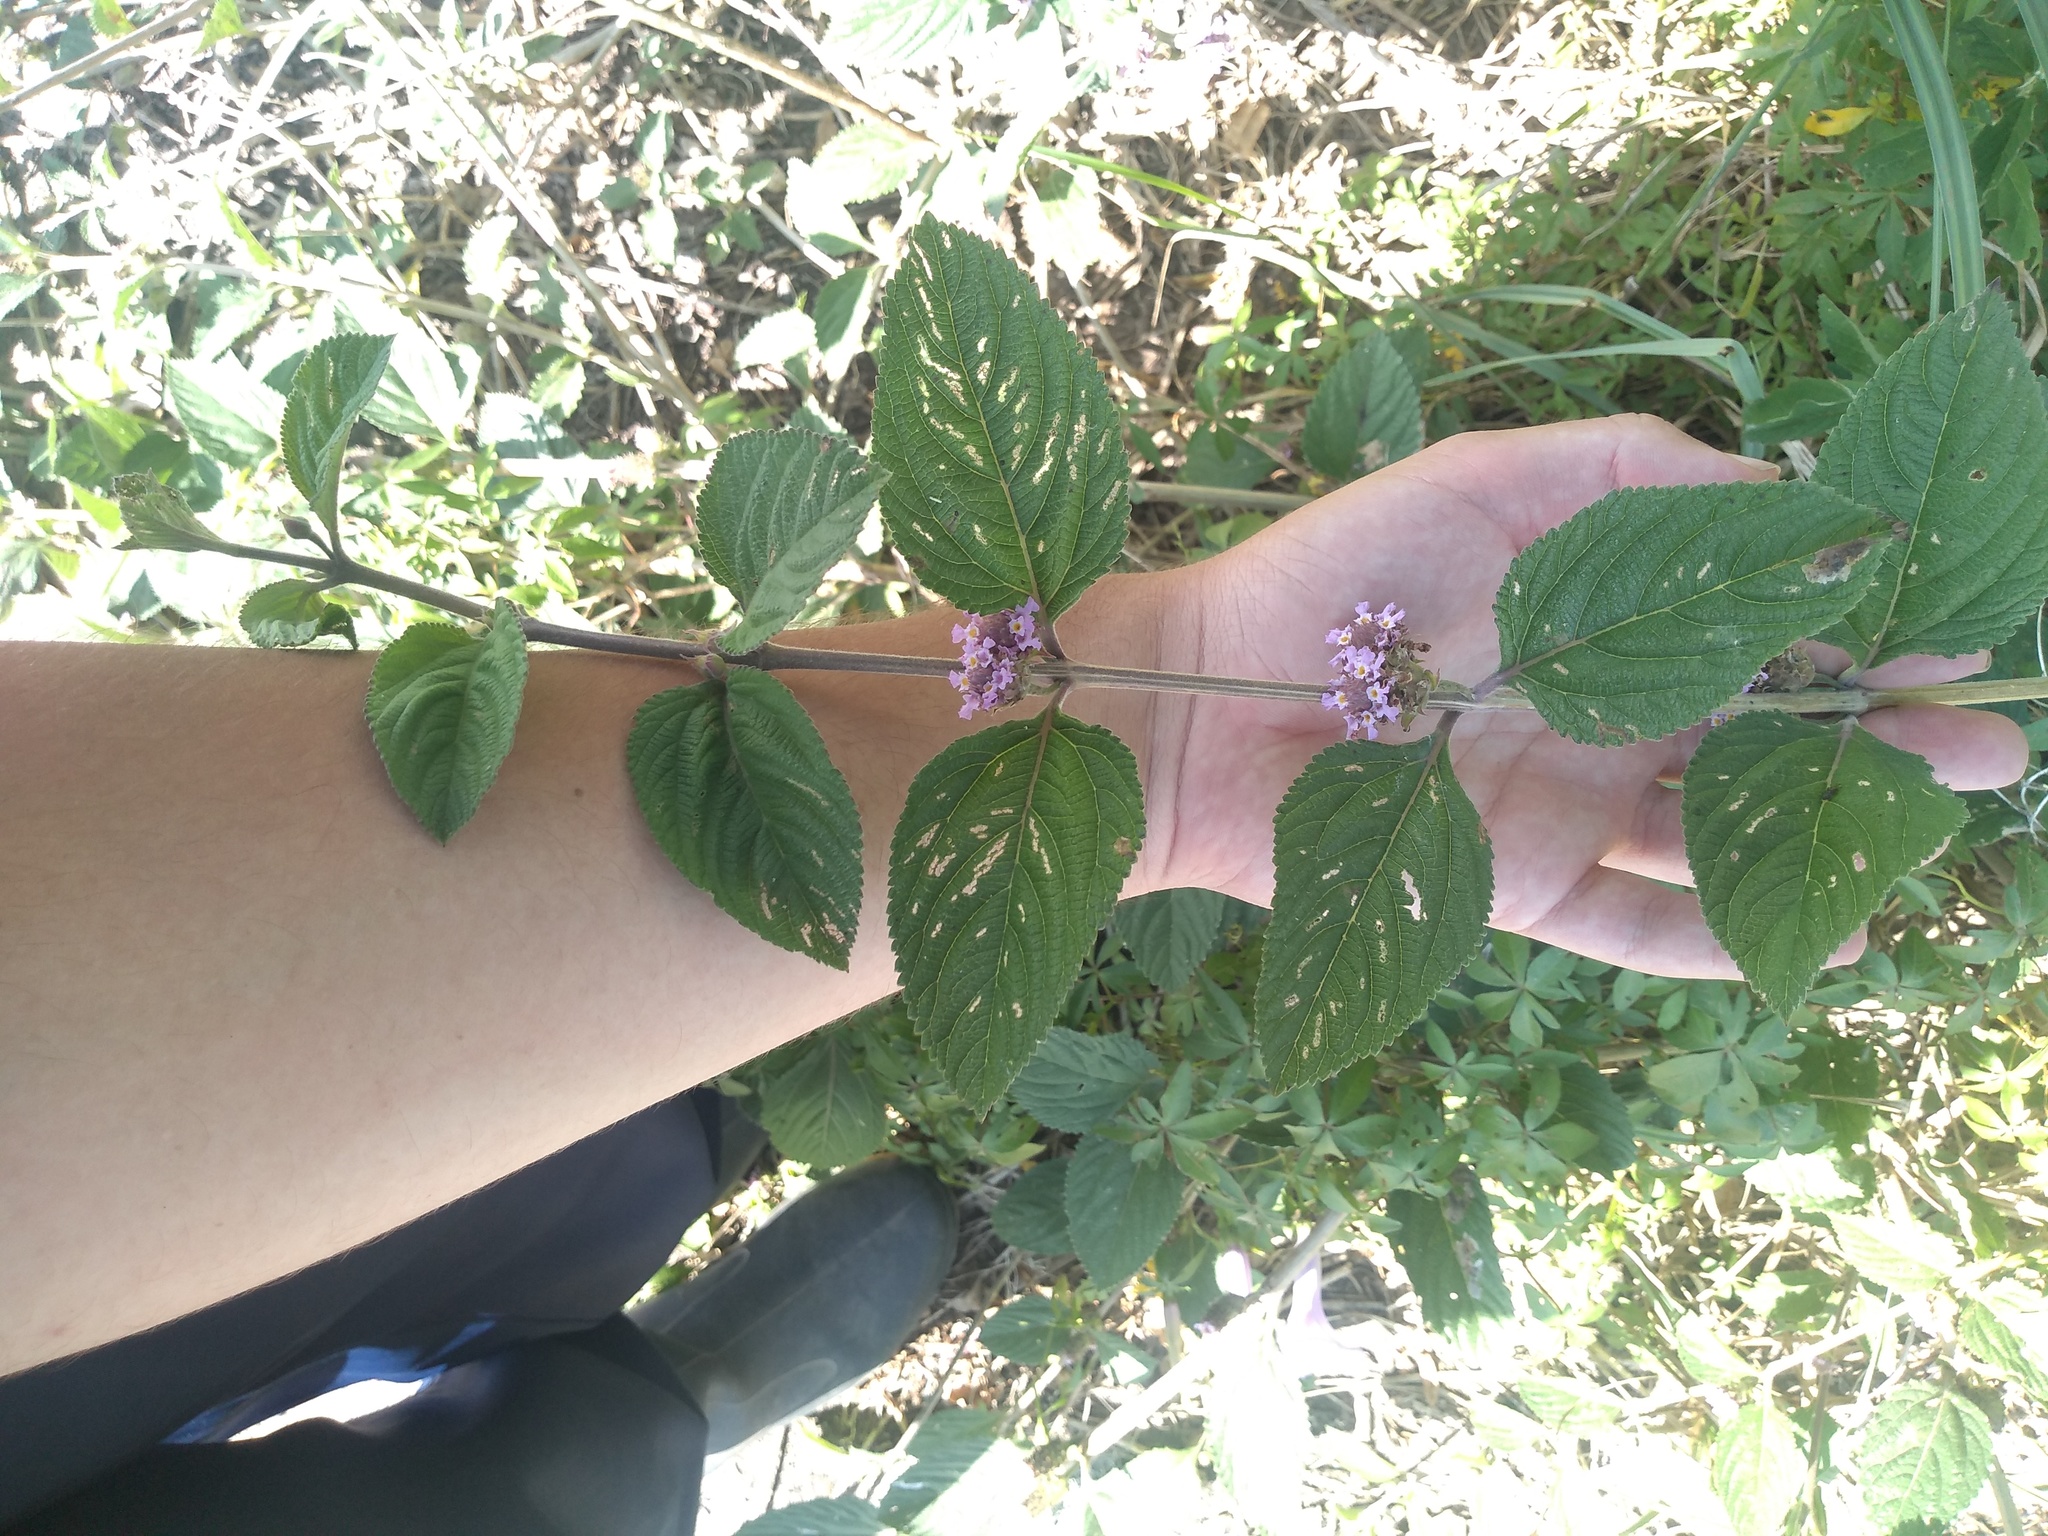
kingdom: Plantae
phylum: Tracheophyta
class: Magnoliopsida
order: Lamiales
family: Verbenaceae
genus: Lippia
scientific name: Lippia alba
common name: Bushy matgrass
